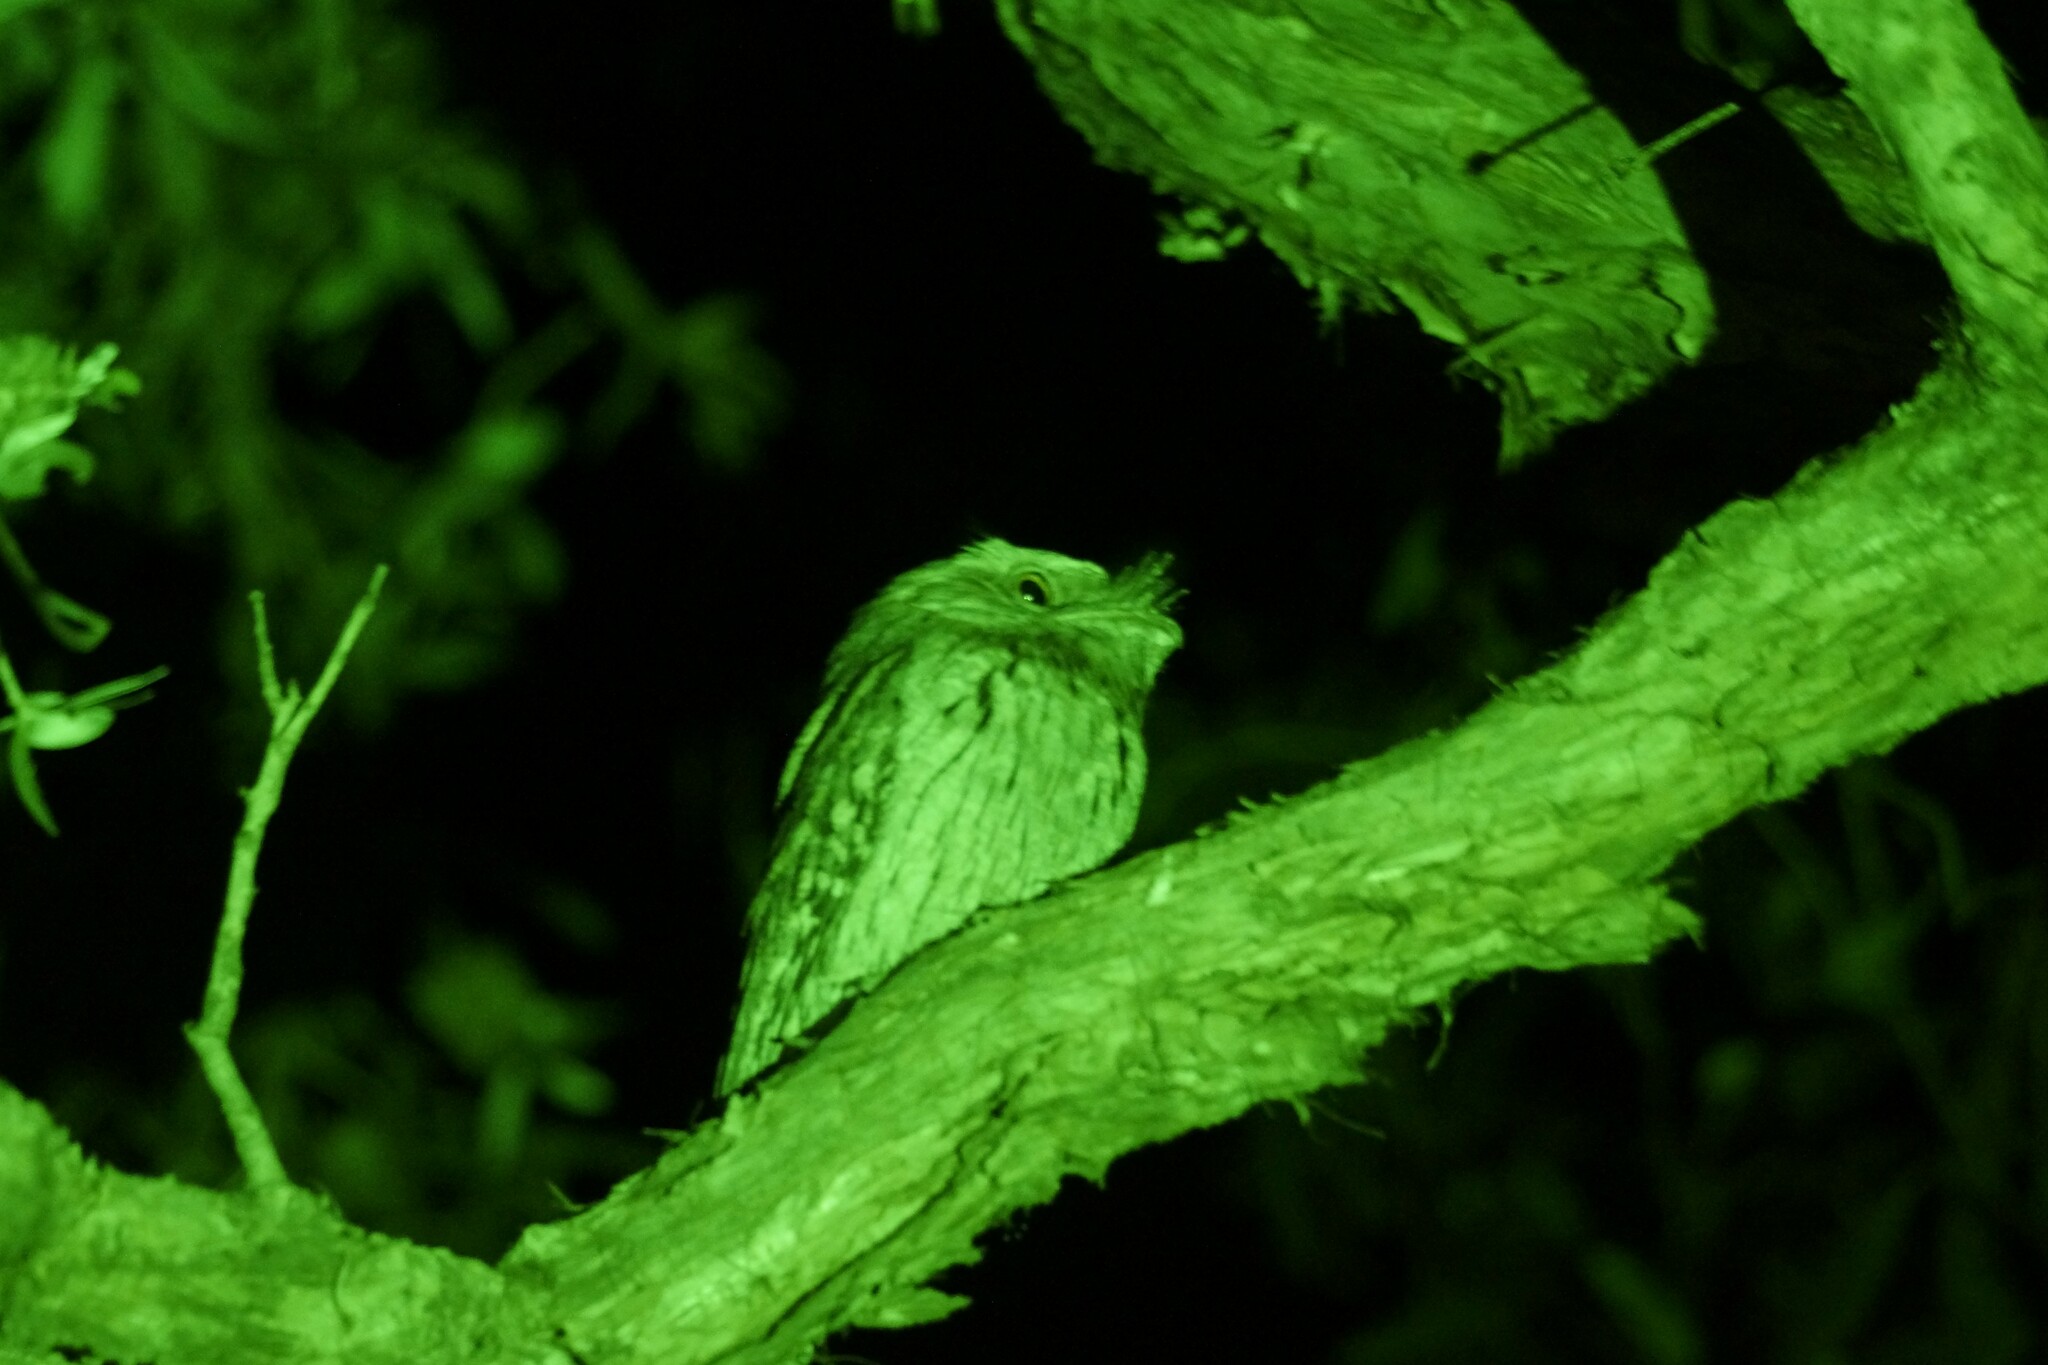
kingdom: Animalia
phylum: Chordata
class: Aves
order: Caprimulgiformes
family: Podargidae
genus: Podargus
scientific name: Podargus strigoides
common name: Tawny frogmouth
